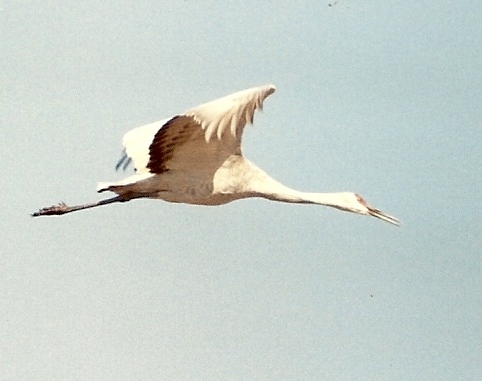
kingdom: Animalia
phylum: Chordata
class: Aves
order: Gruiformes
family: Gruidae
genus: Grus
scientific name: Grus canadensis
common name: Sandhill crane
